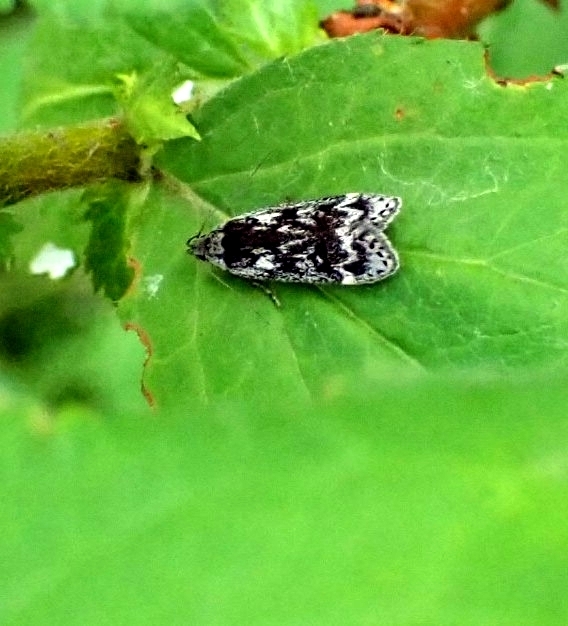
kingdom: Animalia
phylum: Arthropoda
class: Insecta
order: Lepidoptera
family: Gelechiidae
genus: Anacampsis
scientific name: Anacampsis blattariella
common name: Birch sober
